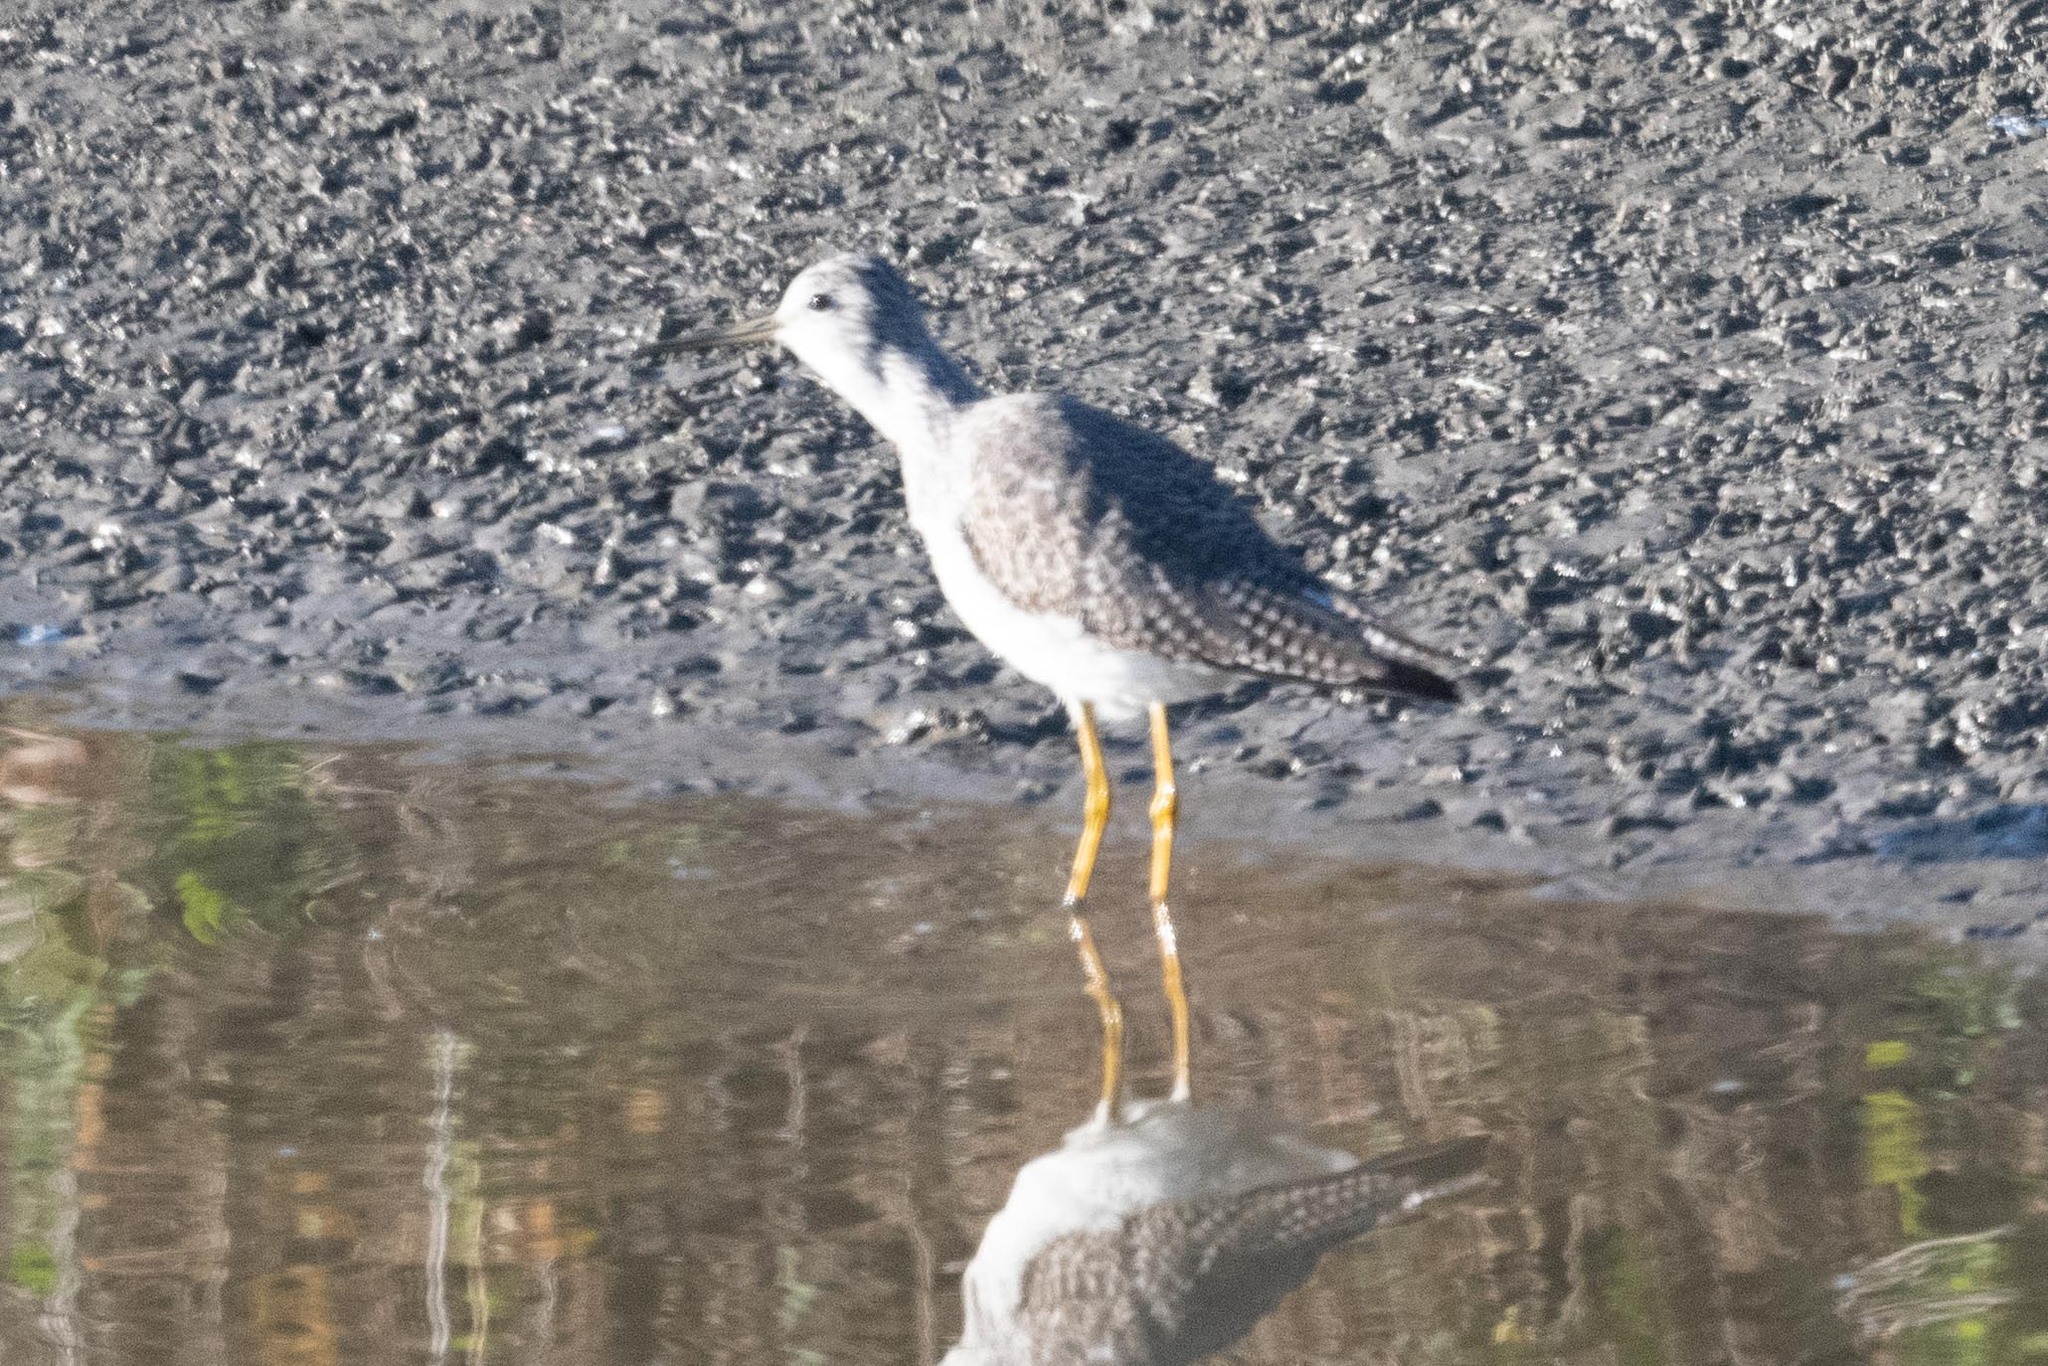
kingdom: Animalia
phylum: Chordata
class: Aves
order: Charadriiformes
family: Scolopacidae
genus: Tringa
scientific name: Tringa melanoleuca
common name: Greater yellowlegs
